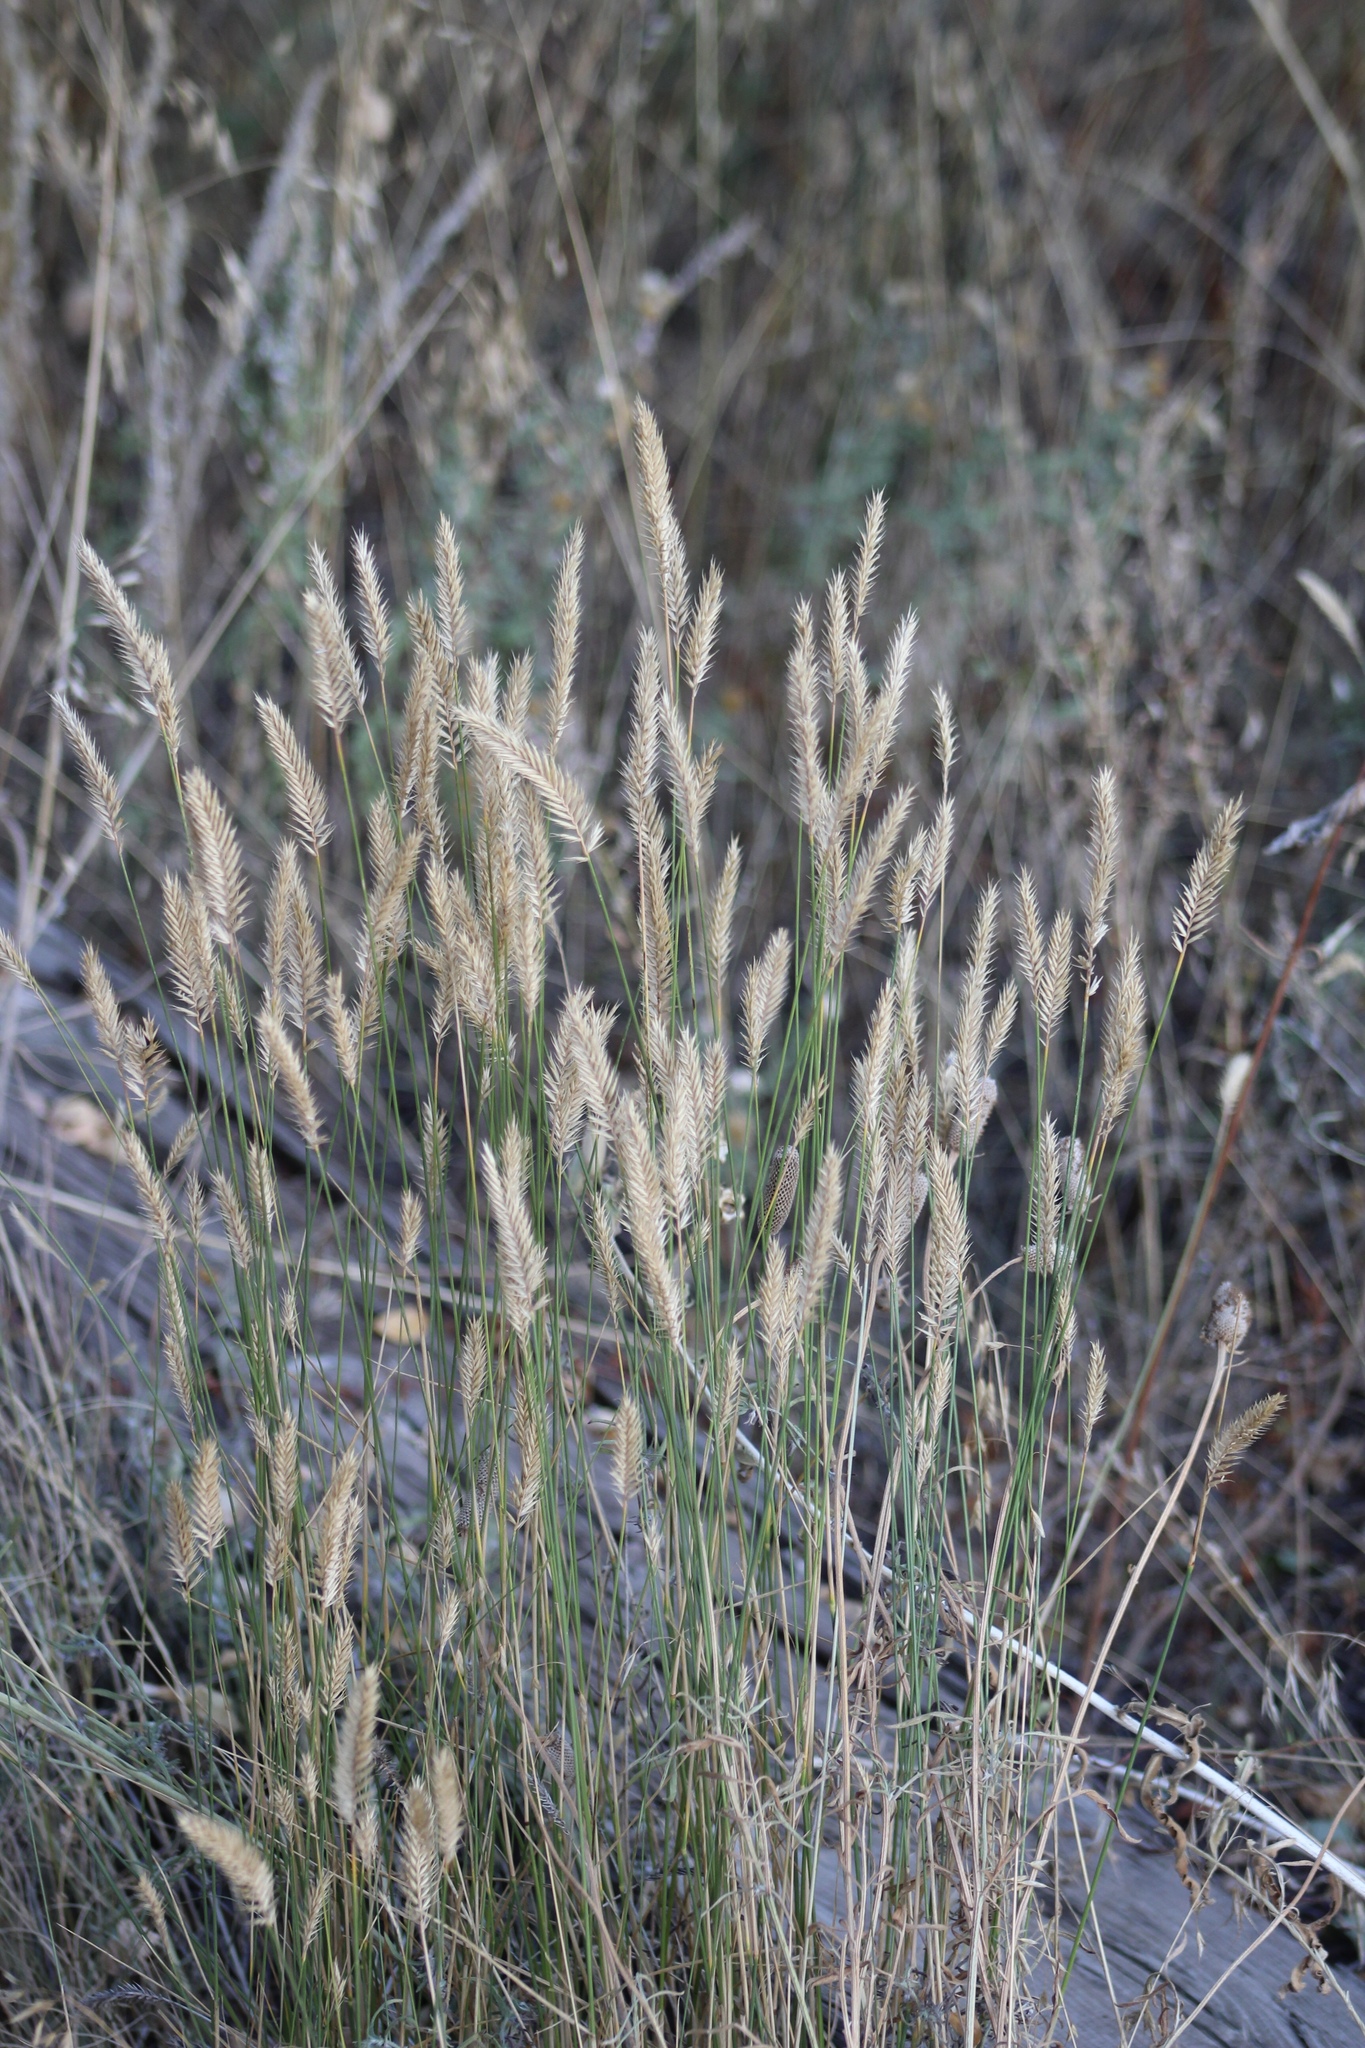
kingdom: Plantae
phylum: Tracheophyta
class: Liliopsida
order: Poales
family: Poaceae
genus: Agropyron
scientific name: Agropyron cristatum
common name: Crested wheatgrass
